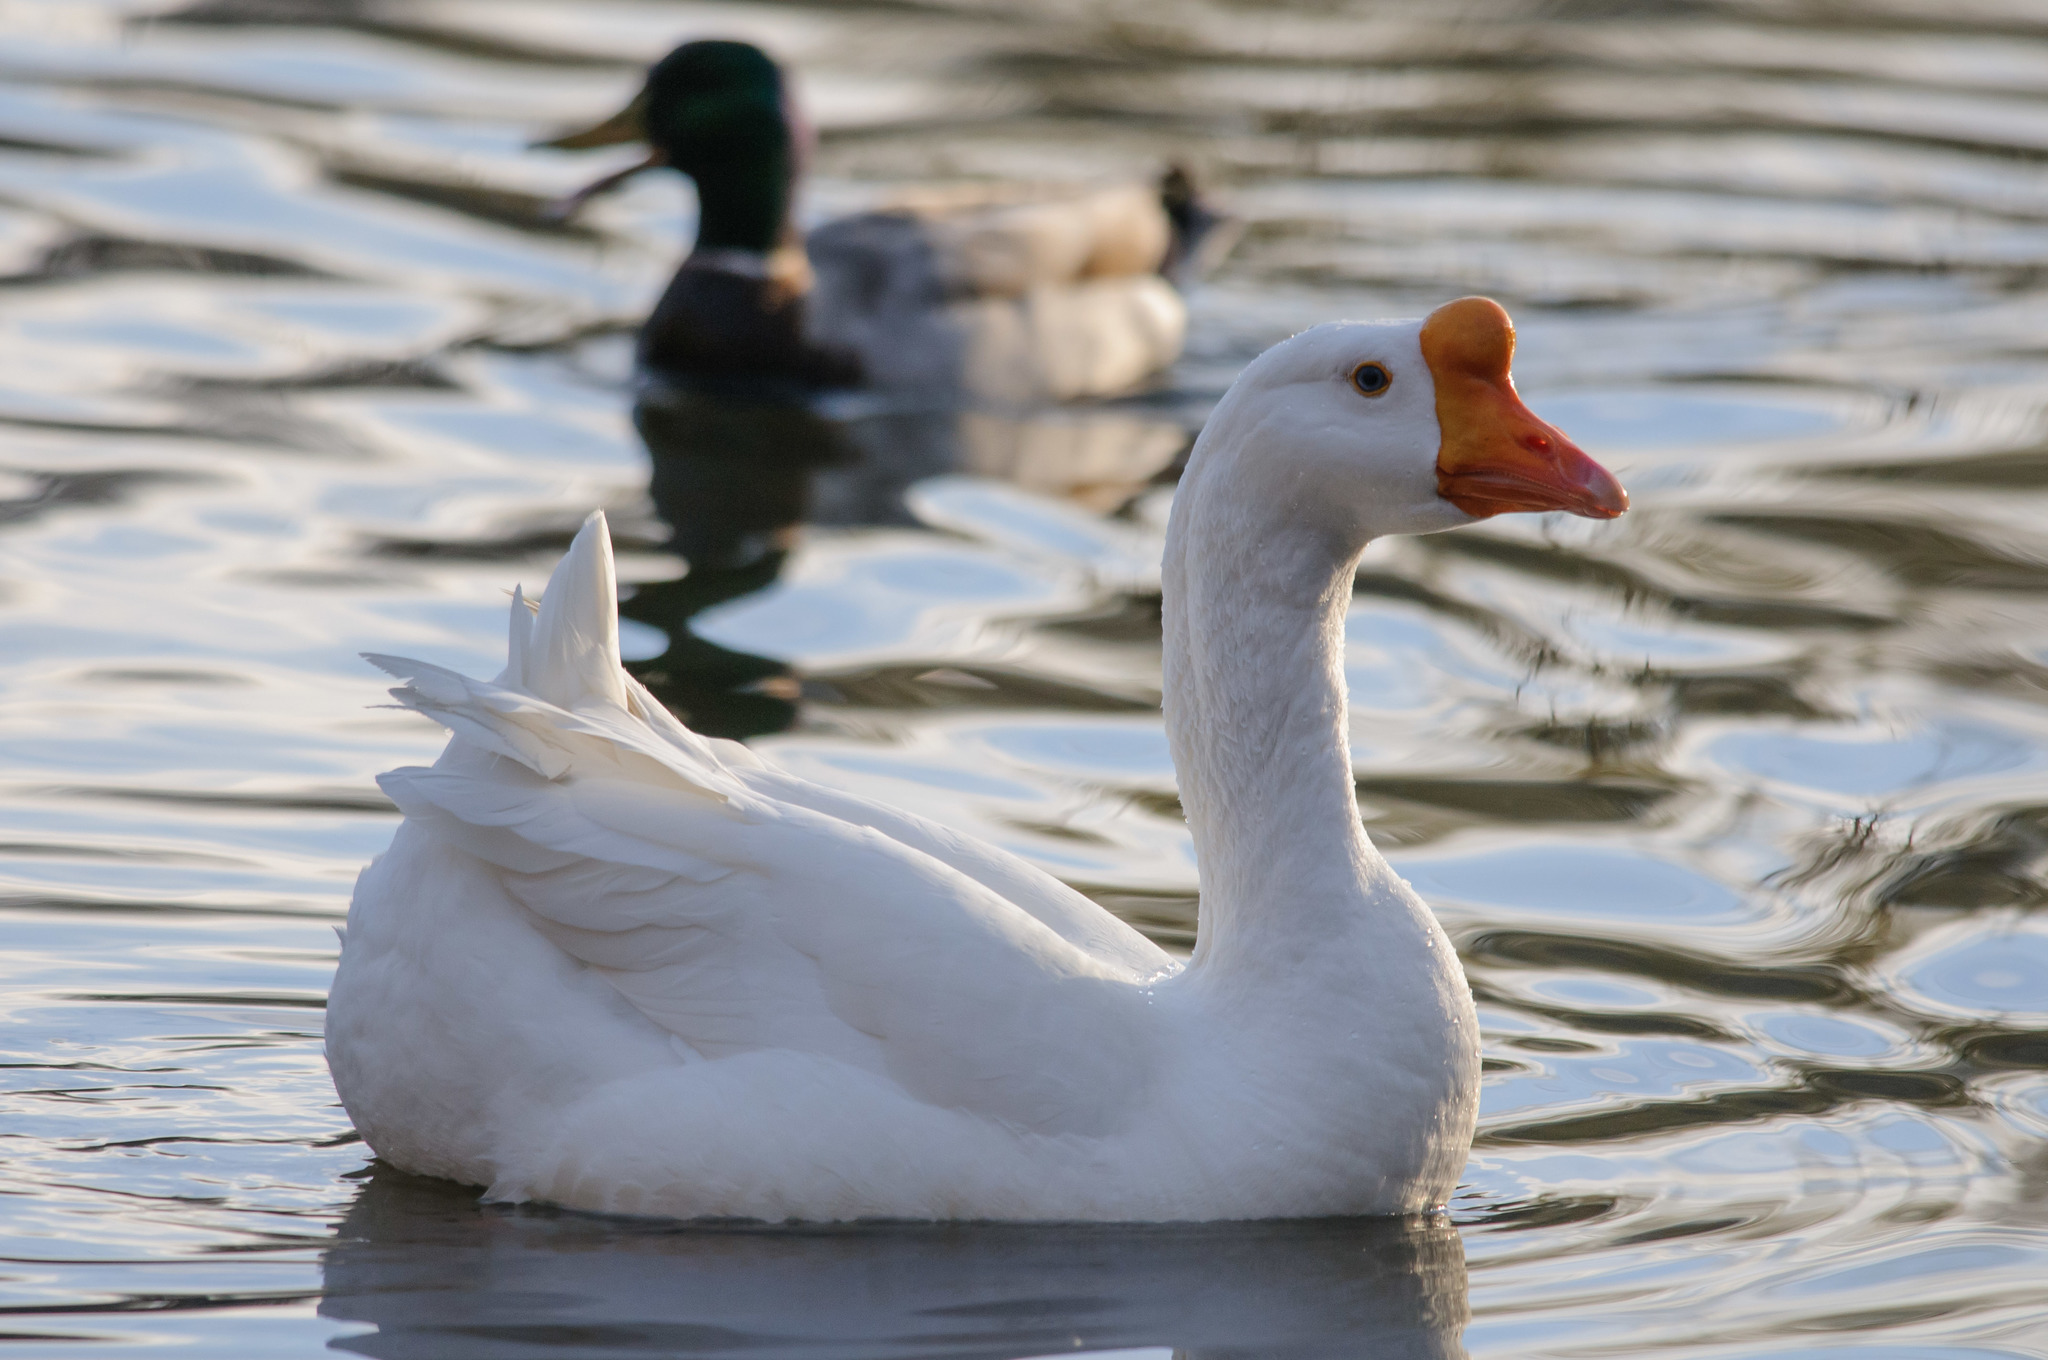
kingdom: Animalia
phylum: Chordata
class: Aves
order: Anseriformes
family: Anatidae
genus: Anser
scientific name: Anser cygnoides
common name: Swan goose
